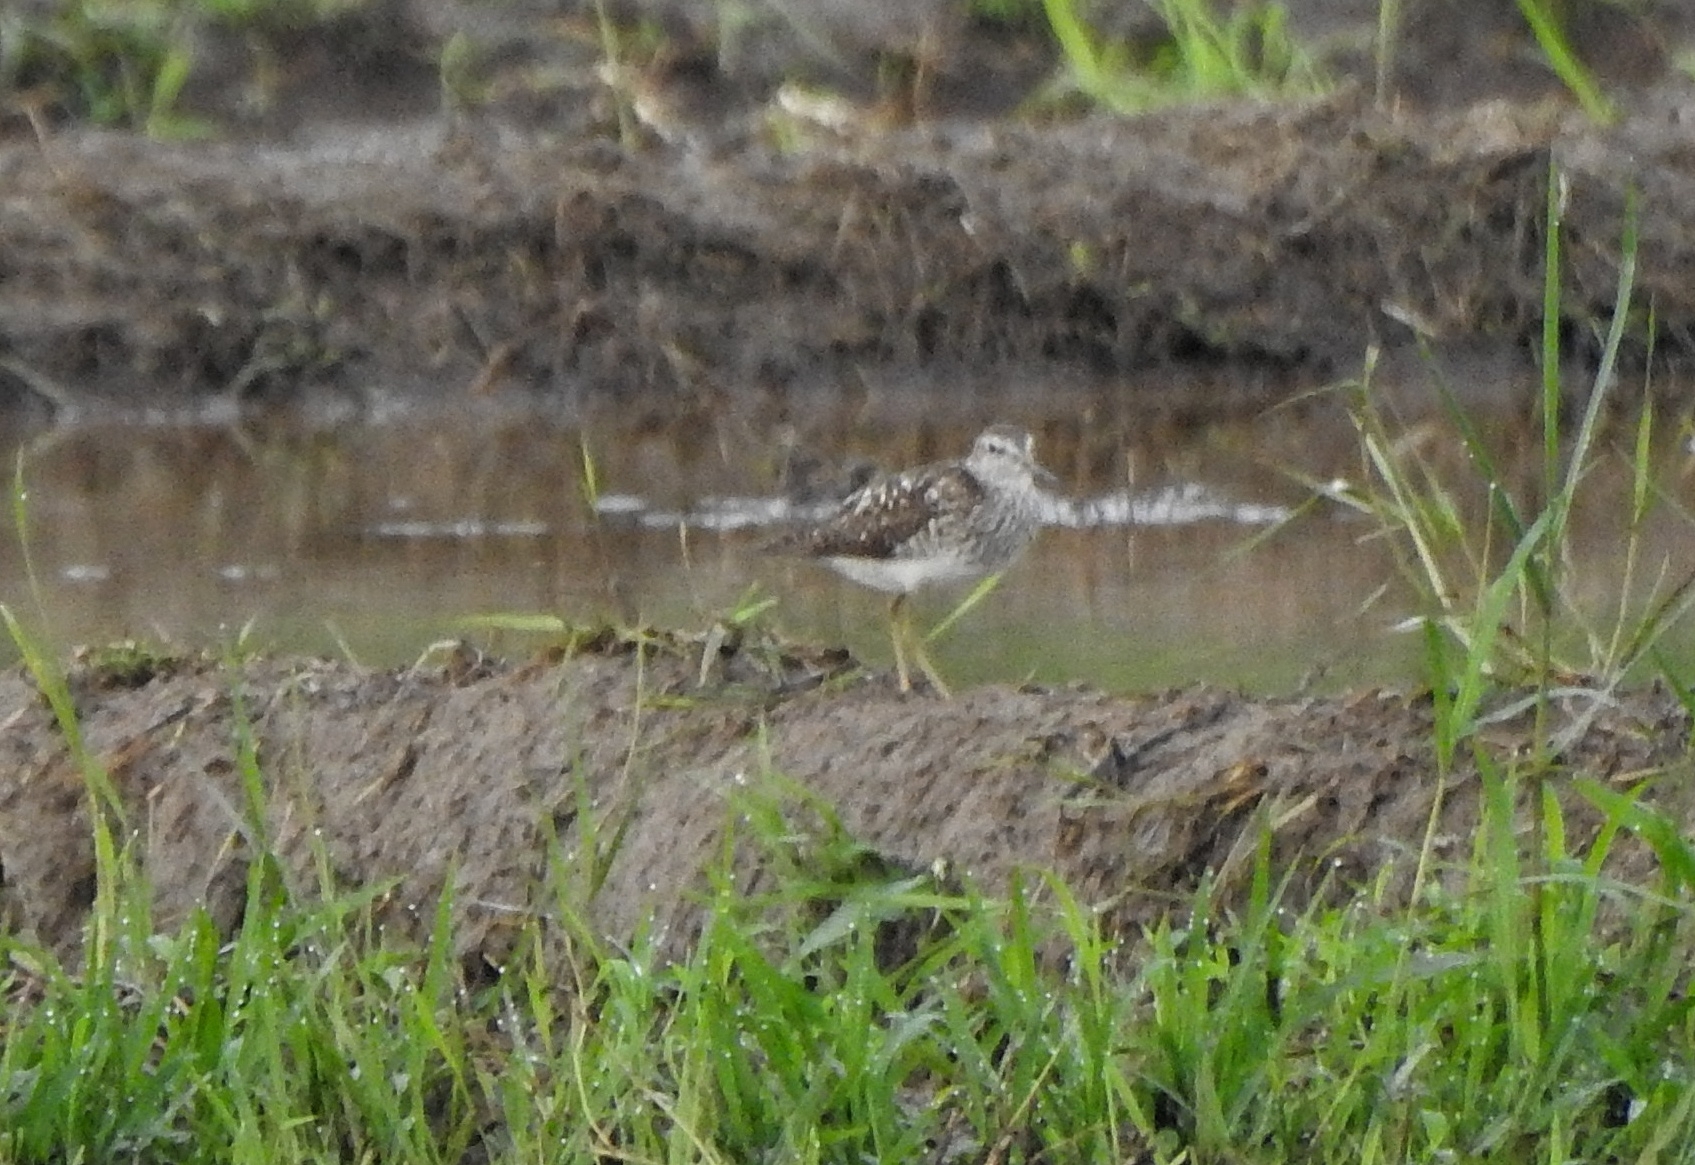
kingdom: Animalia
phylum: Chordata
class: Aves
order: Charadriiformes
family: Scolopacidae
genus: Tringa
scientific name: Tringa glareola
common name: Wood sandpiper
